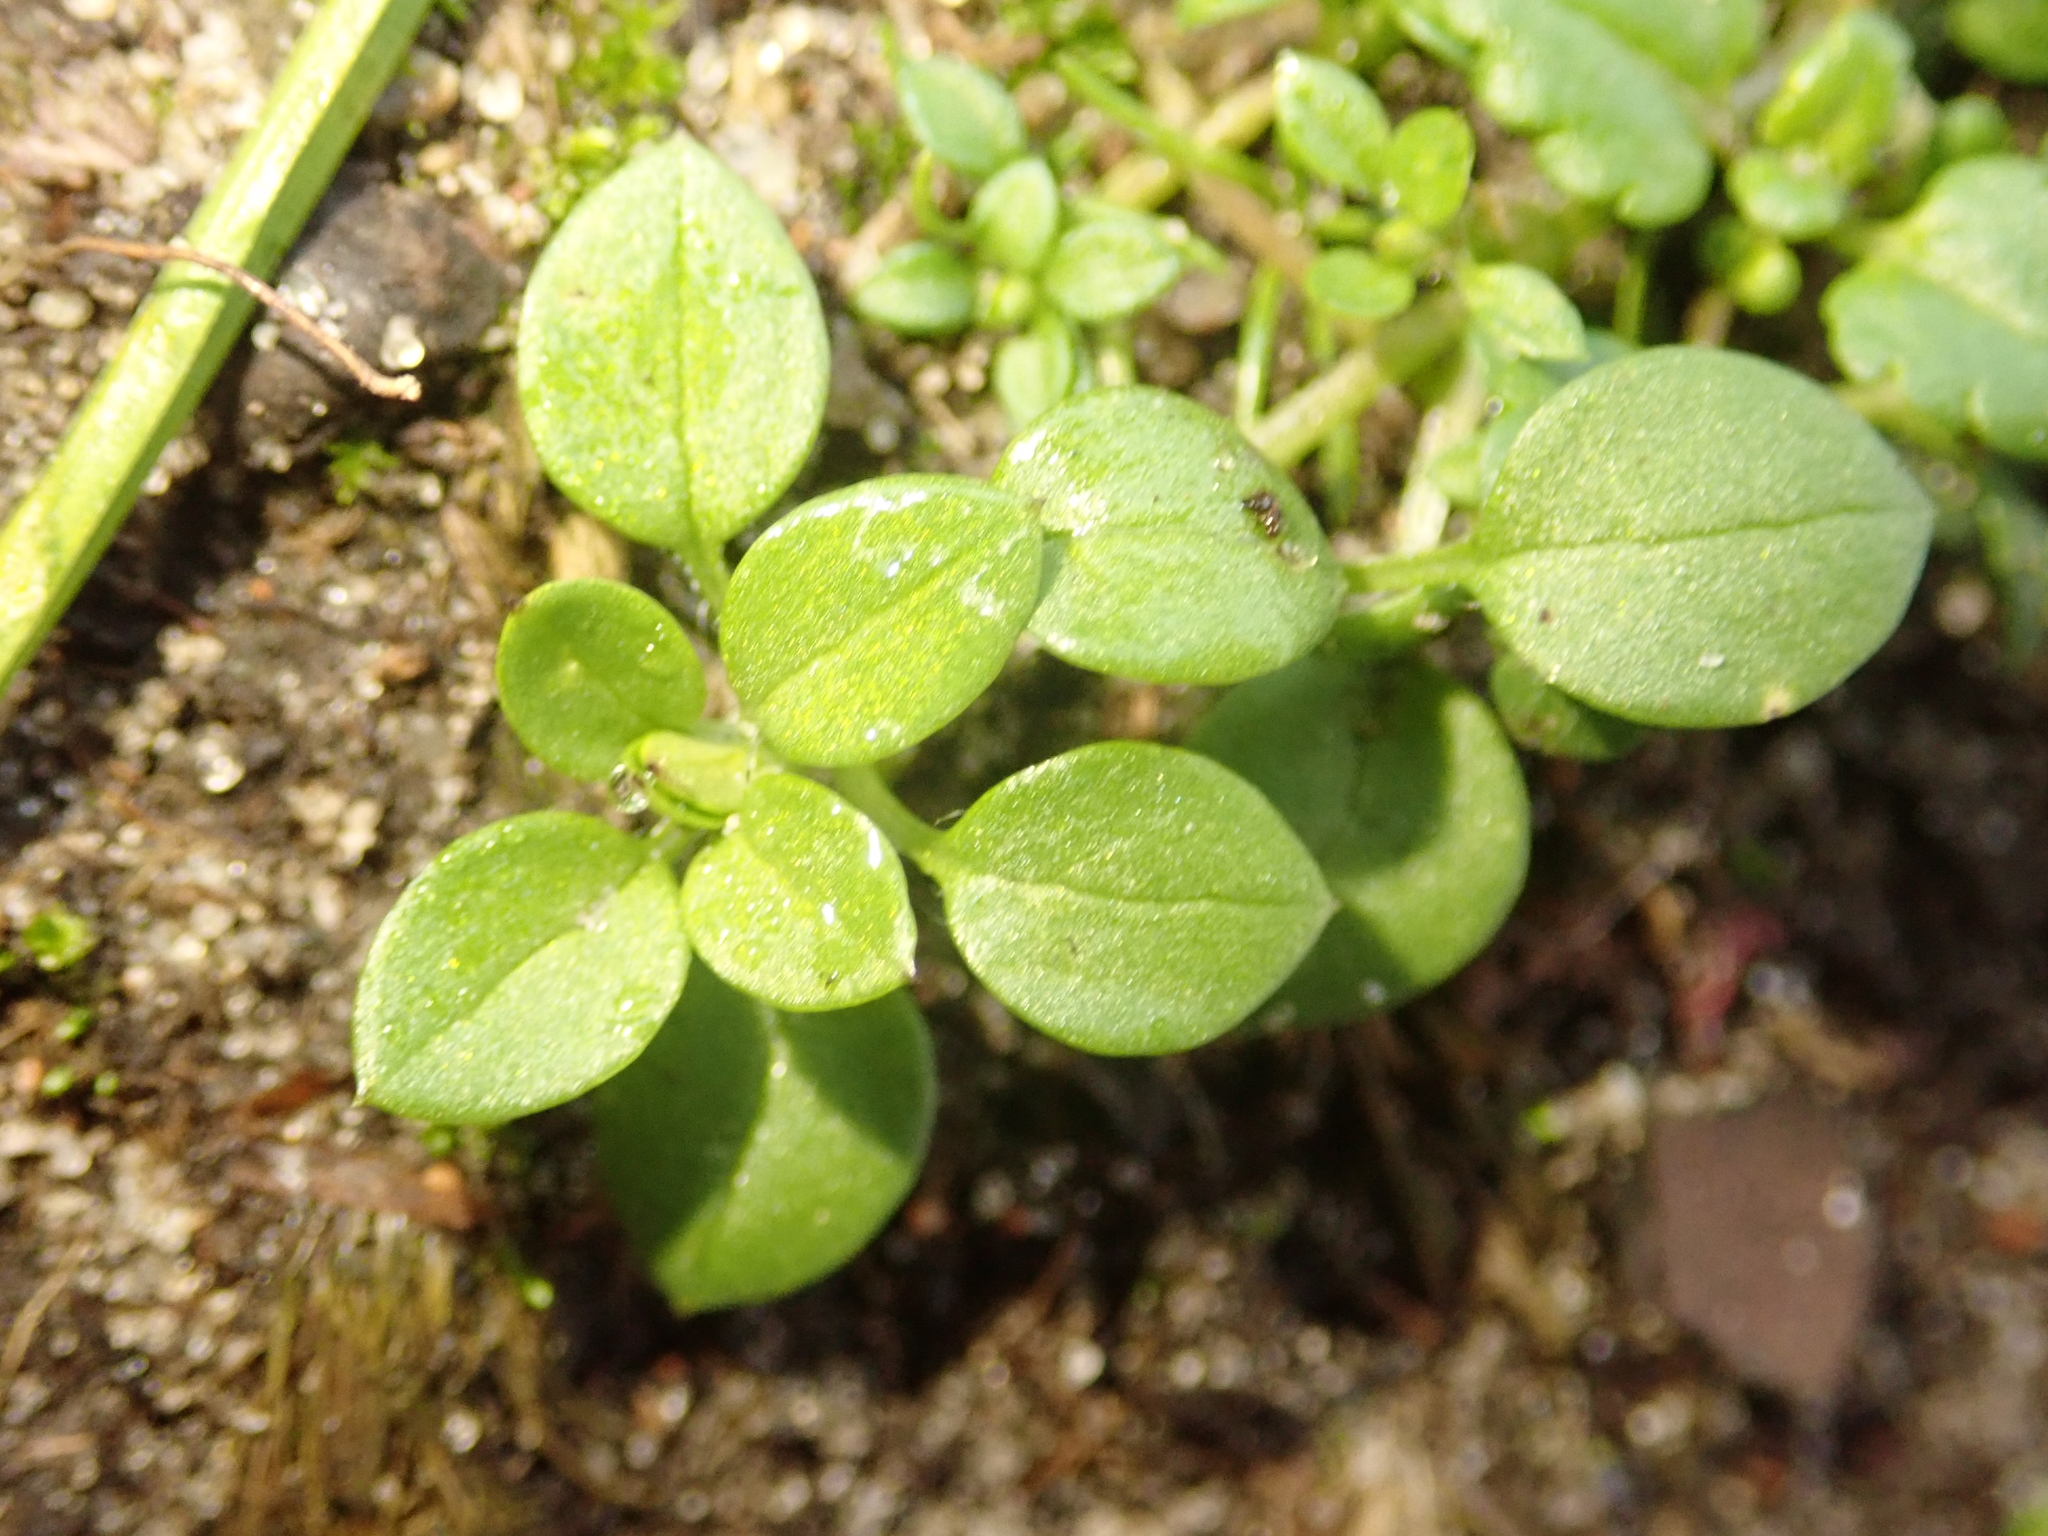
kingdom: Plantae
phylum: Tracheophyta
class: Magnoliopsida
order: Caryophyllales
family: Caryophyllaceae
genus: Stellaria
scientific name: Stellaria media
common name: Common chickweed
